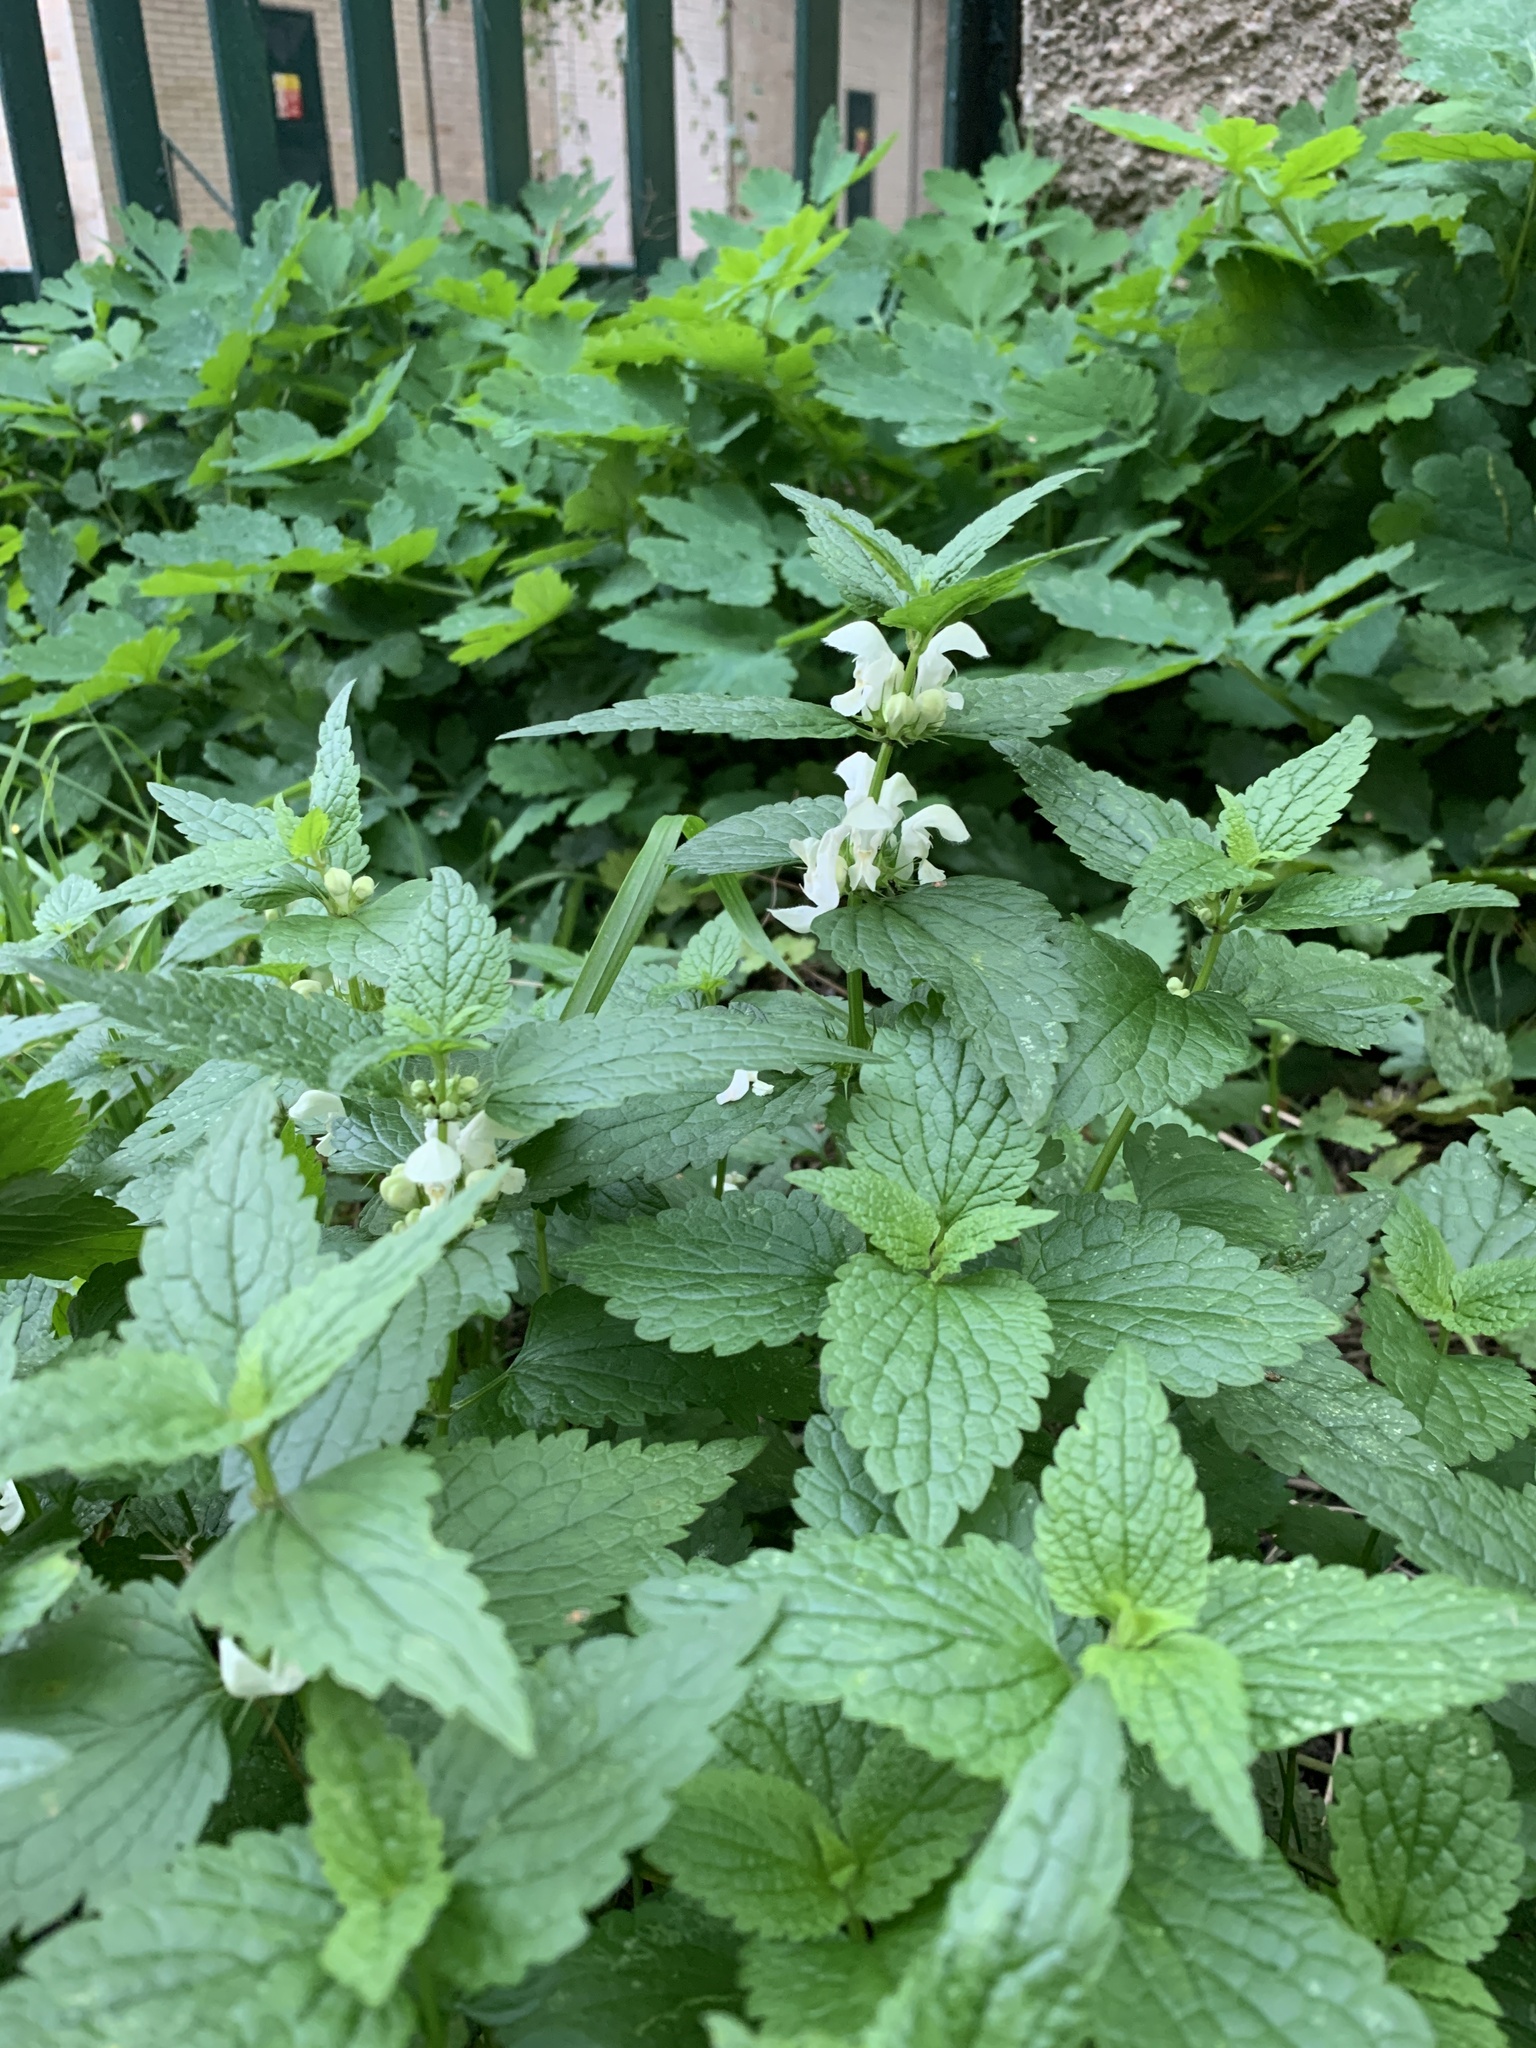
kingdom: Plantae
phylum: Tracheophyta
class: Magnoliopsida
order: Lamiales
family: Lamiaceae
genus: Lamium
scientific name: Lamium album
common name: White dead-nettle
